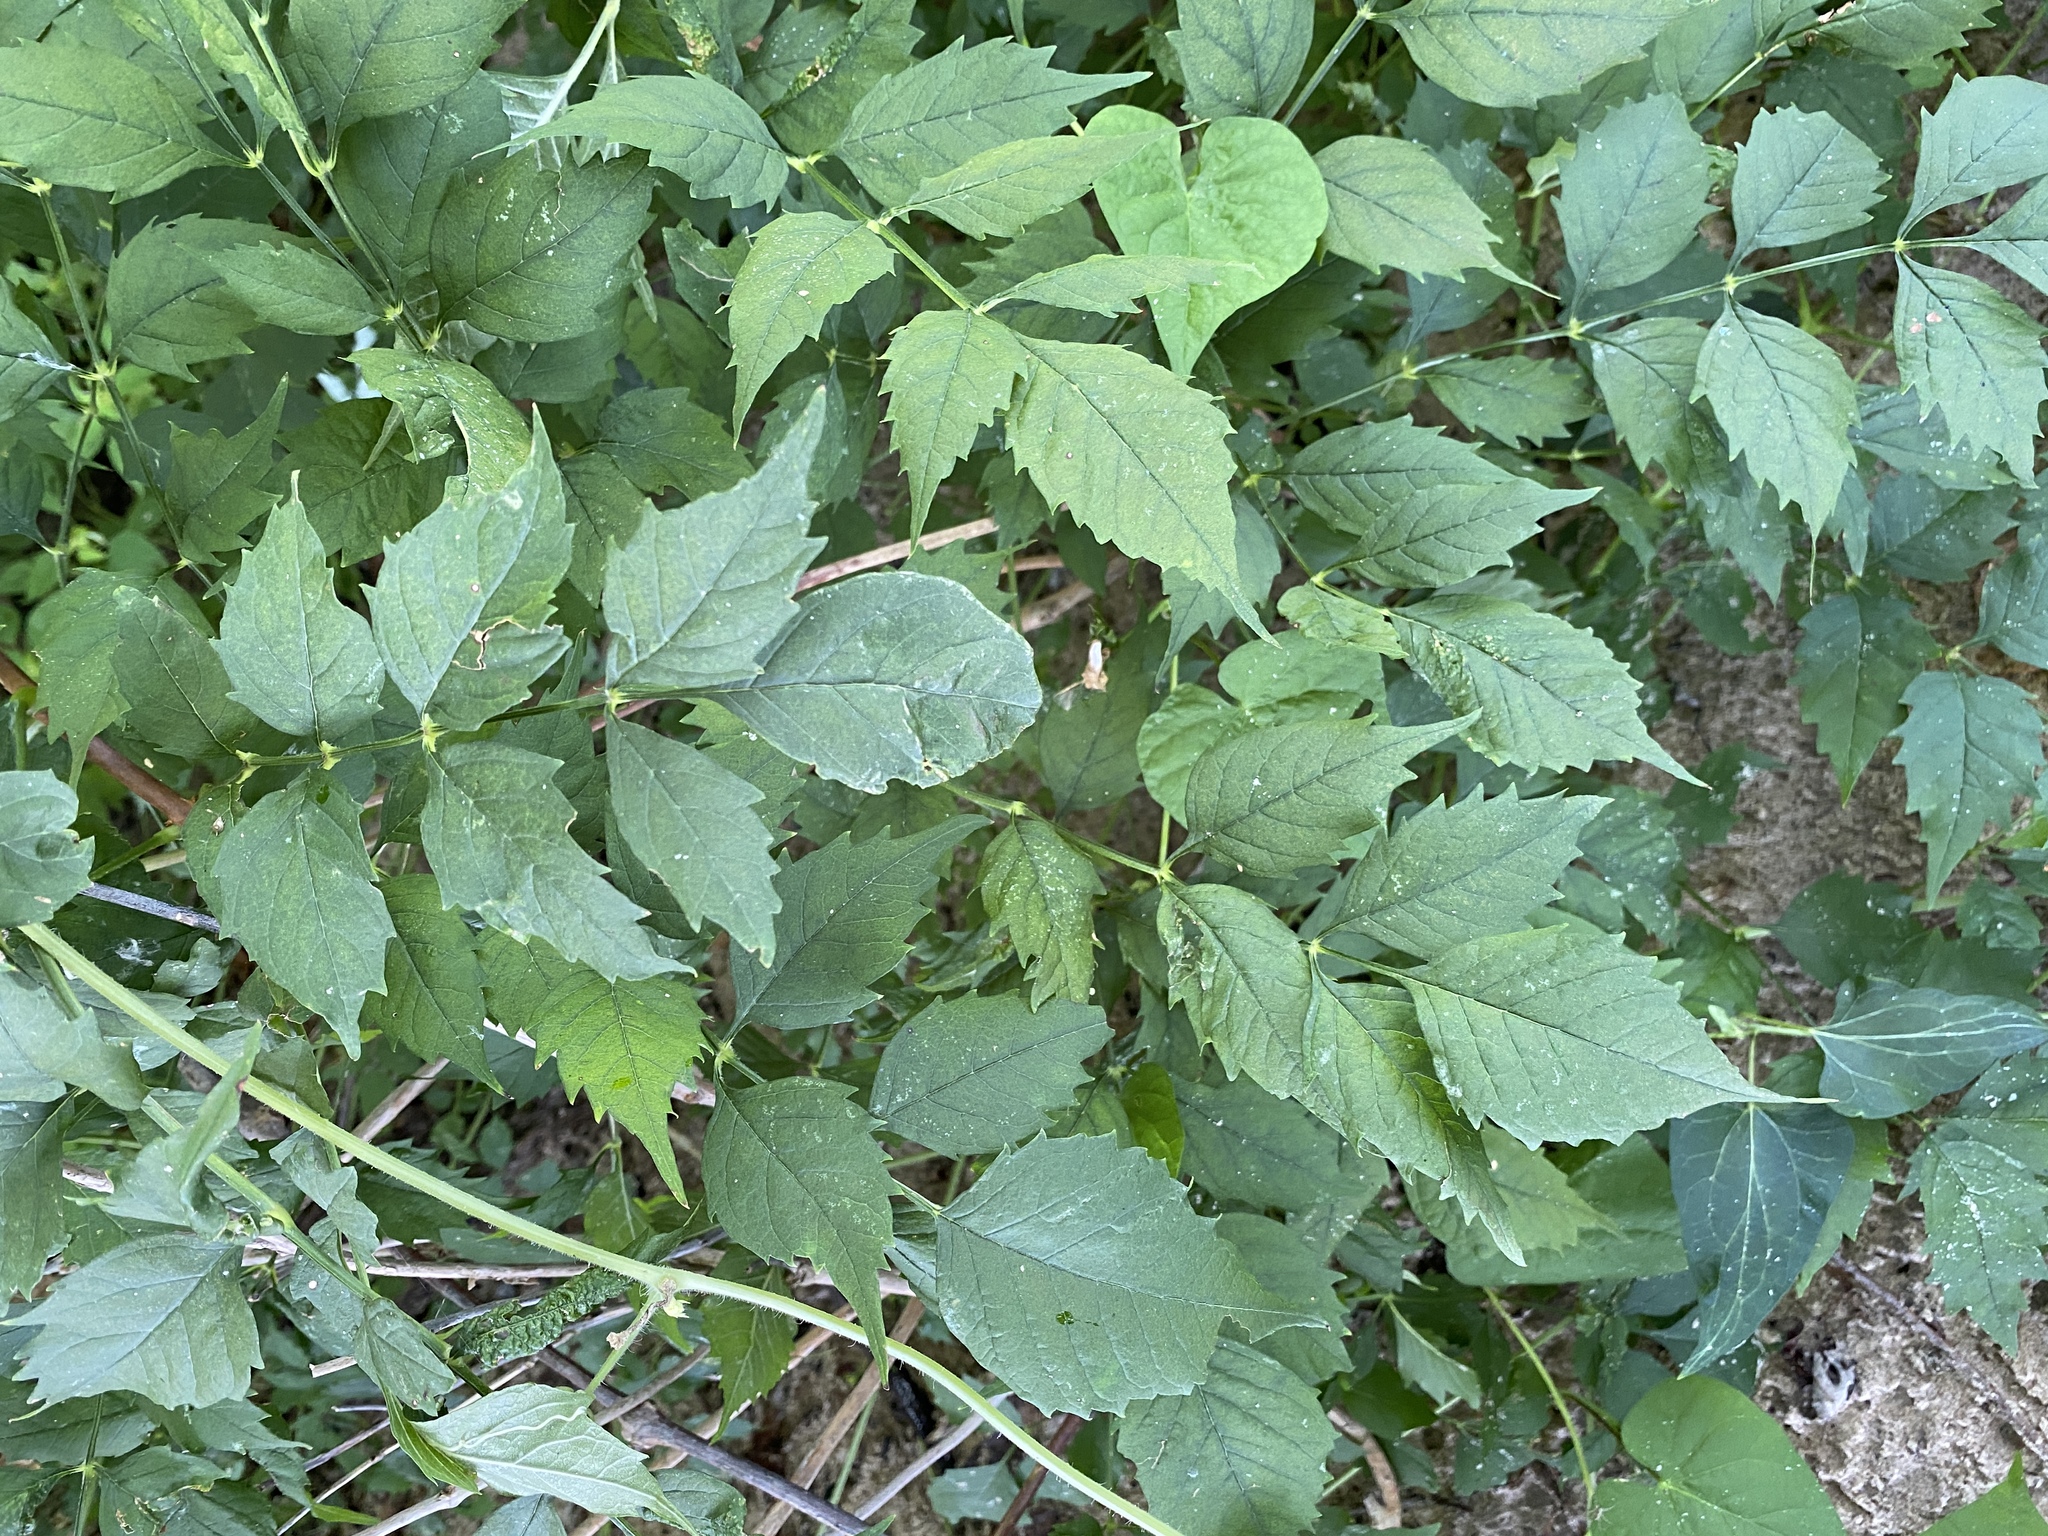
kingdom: Plantae
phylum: Tracheophyta
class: Magnoliopsida
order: Lamiales
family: Bignoniaceae
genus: Campsis
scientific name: Campsis radicans
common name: Trumpet-creeper
